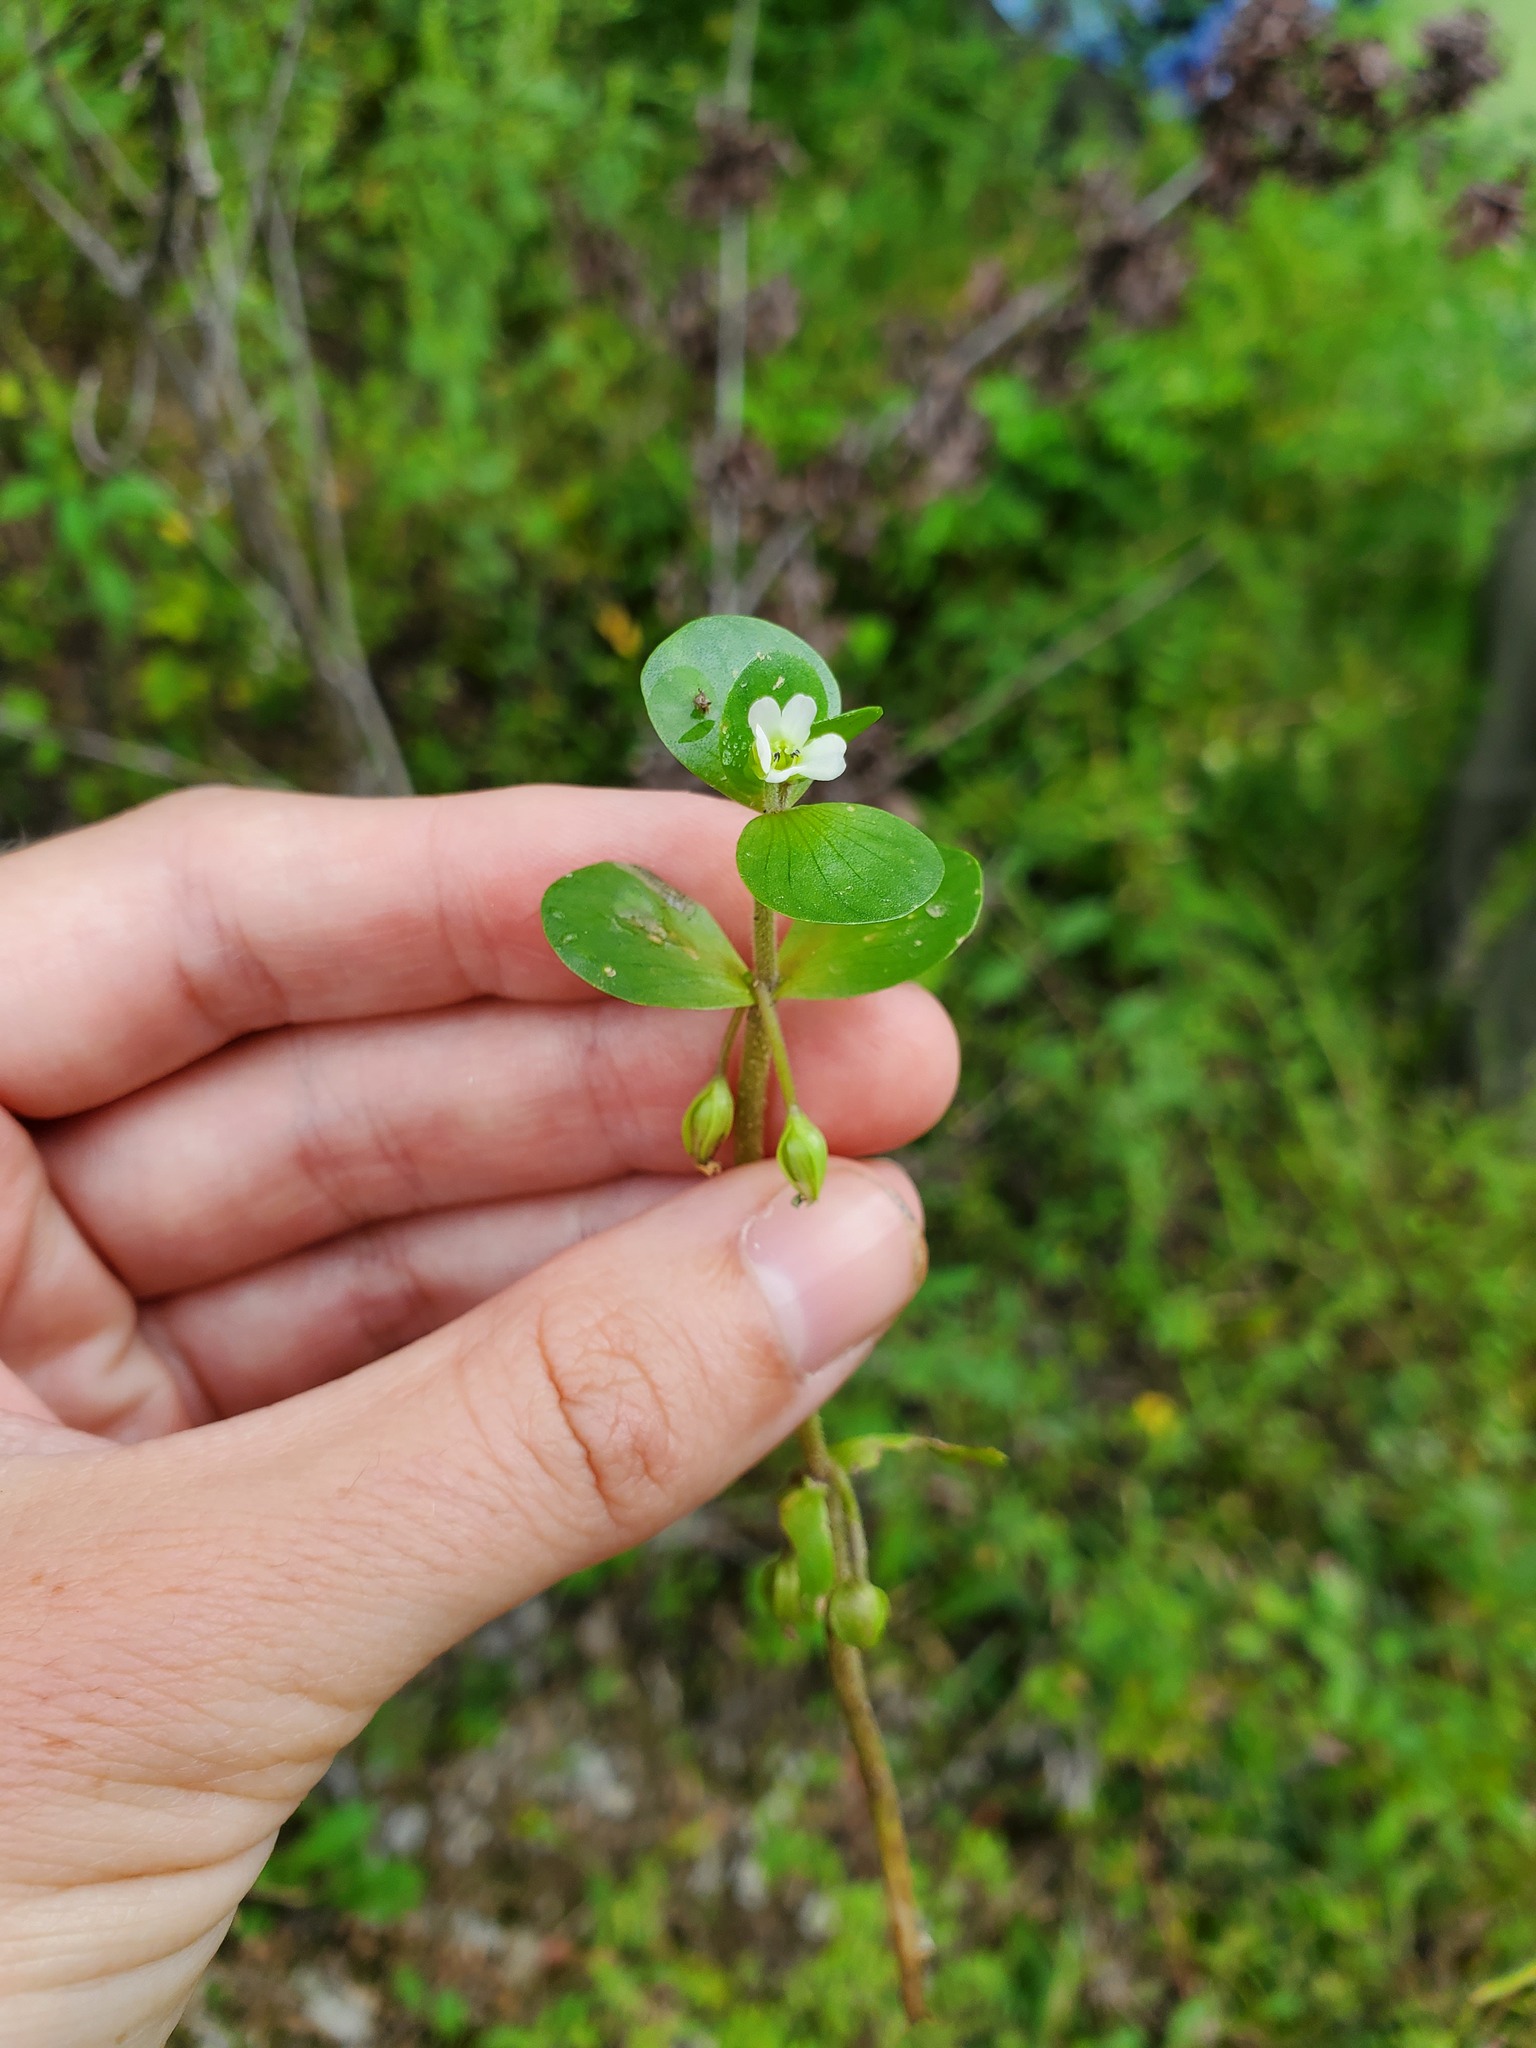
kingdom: Plantae
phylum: Tracheophyta
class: Magnoliopsida
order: Lamiales
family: Plantaginaceae
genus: Bacopa
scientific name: Bacopa rotundifolia
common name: Disc water hyssop
